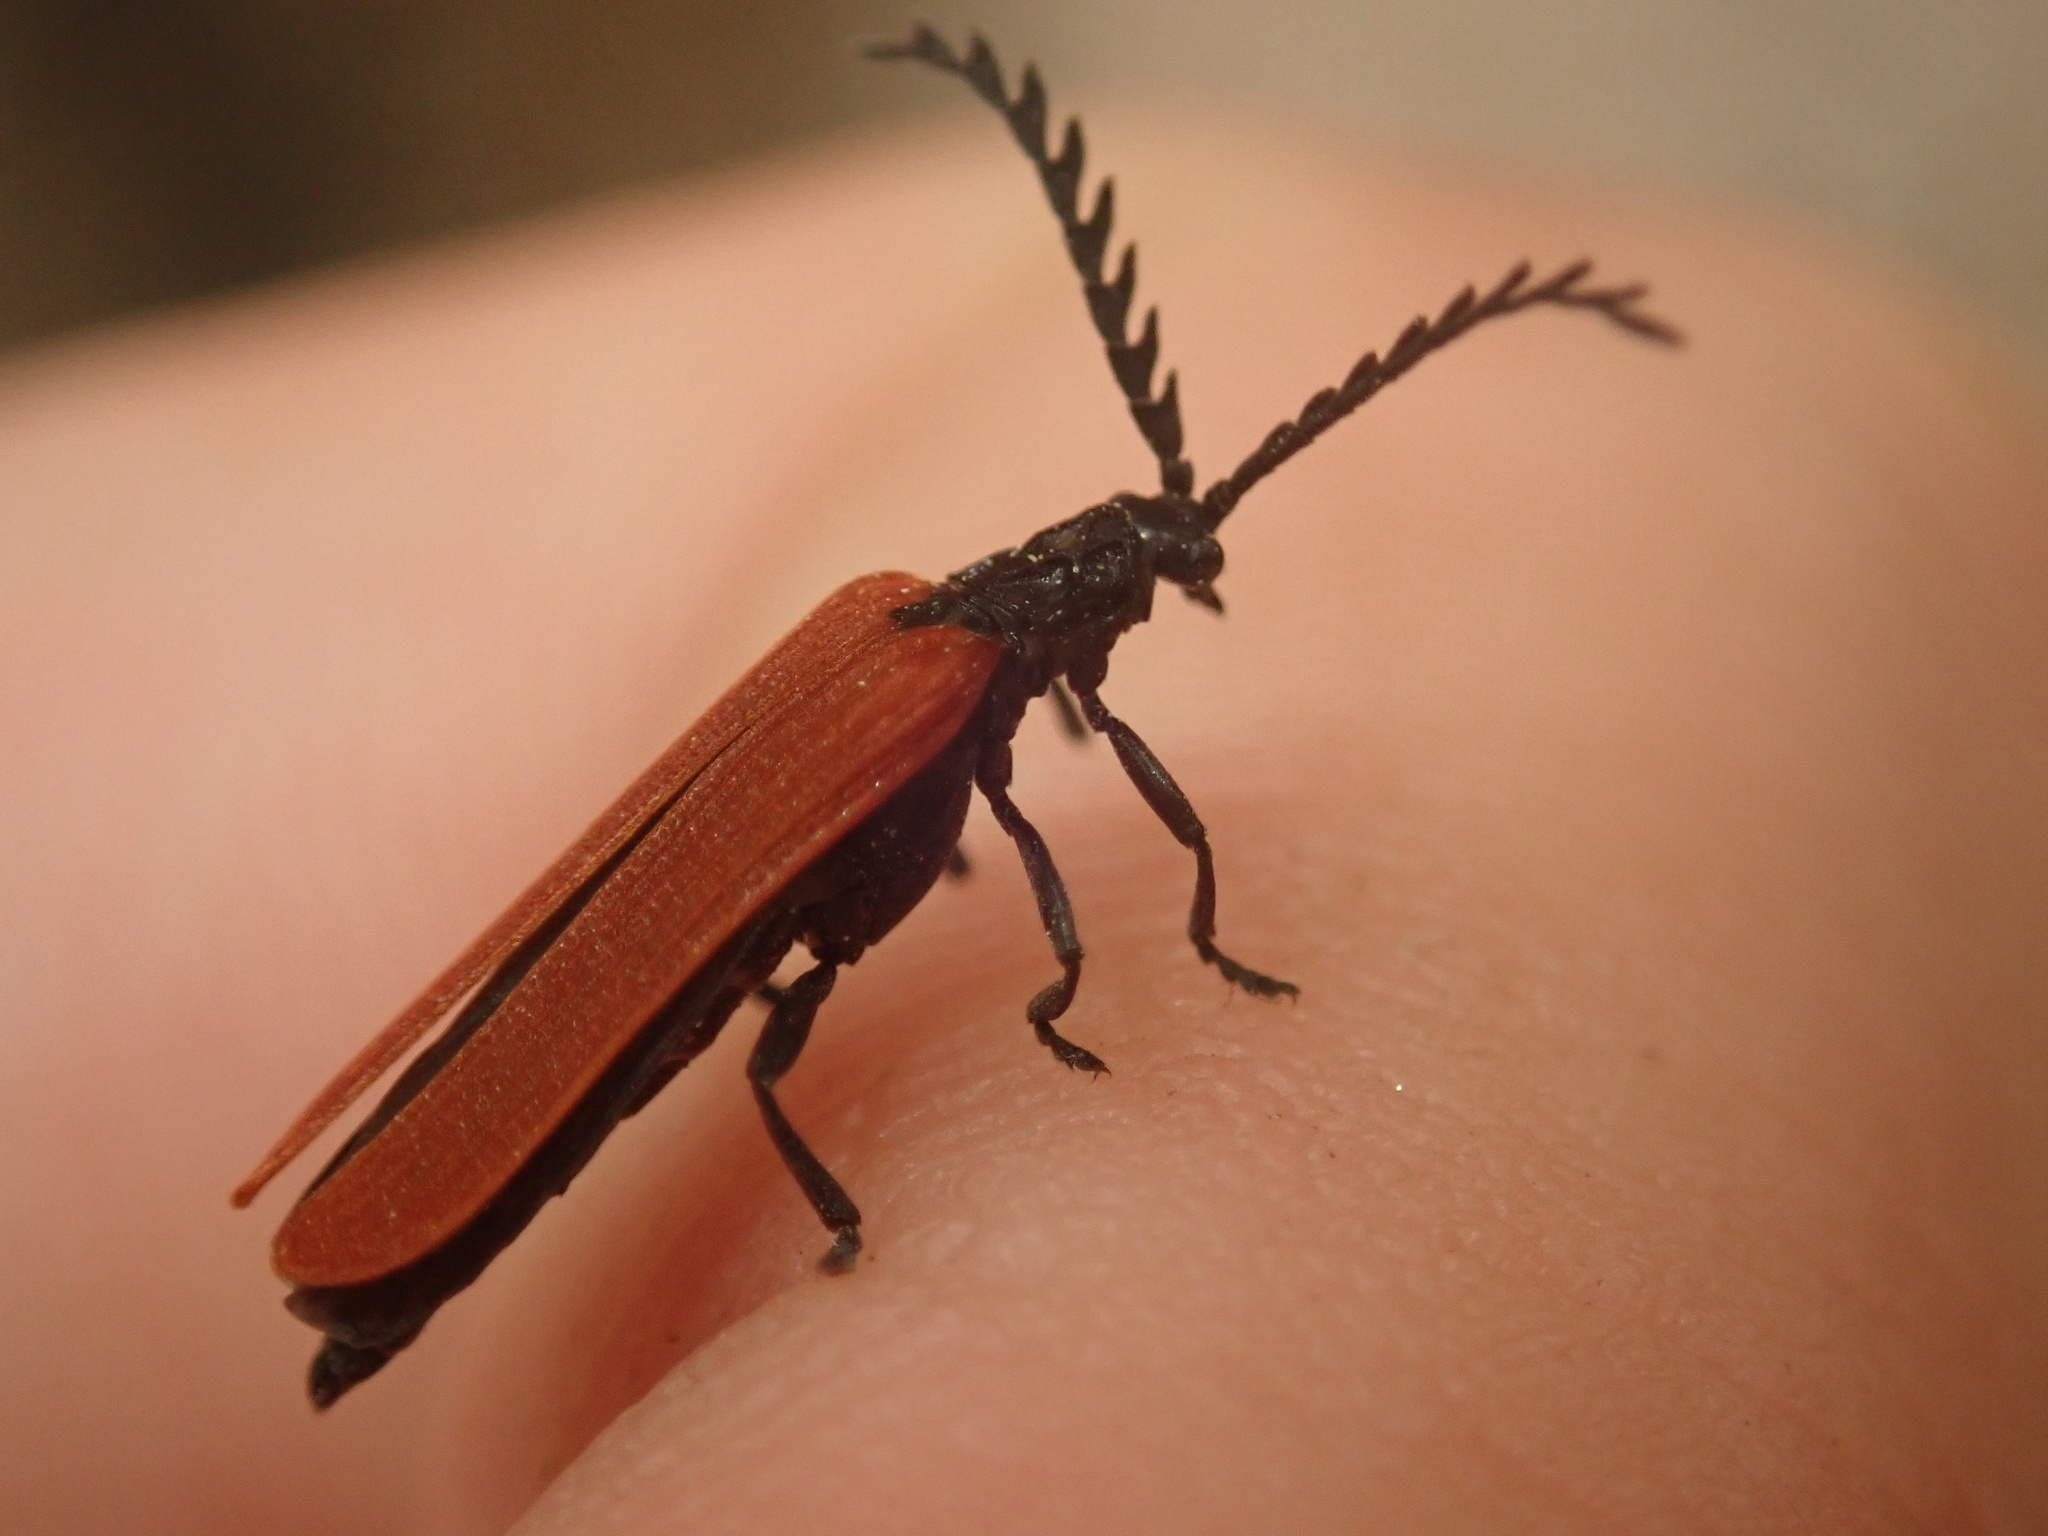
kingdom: Animalia
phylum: Arthropoda
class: Insecta
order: Coleoptera
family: Lycidae
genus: Porrostoma
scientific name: Porrostoma rufipenne
